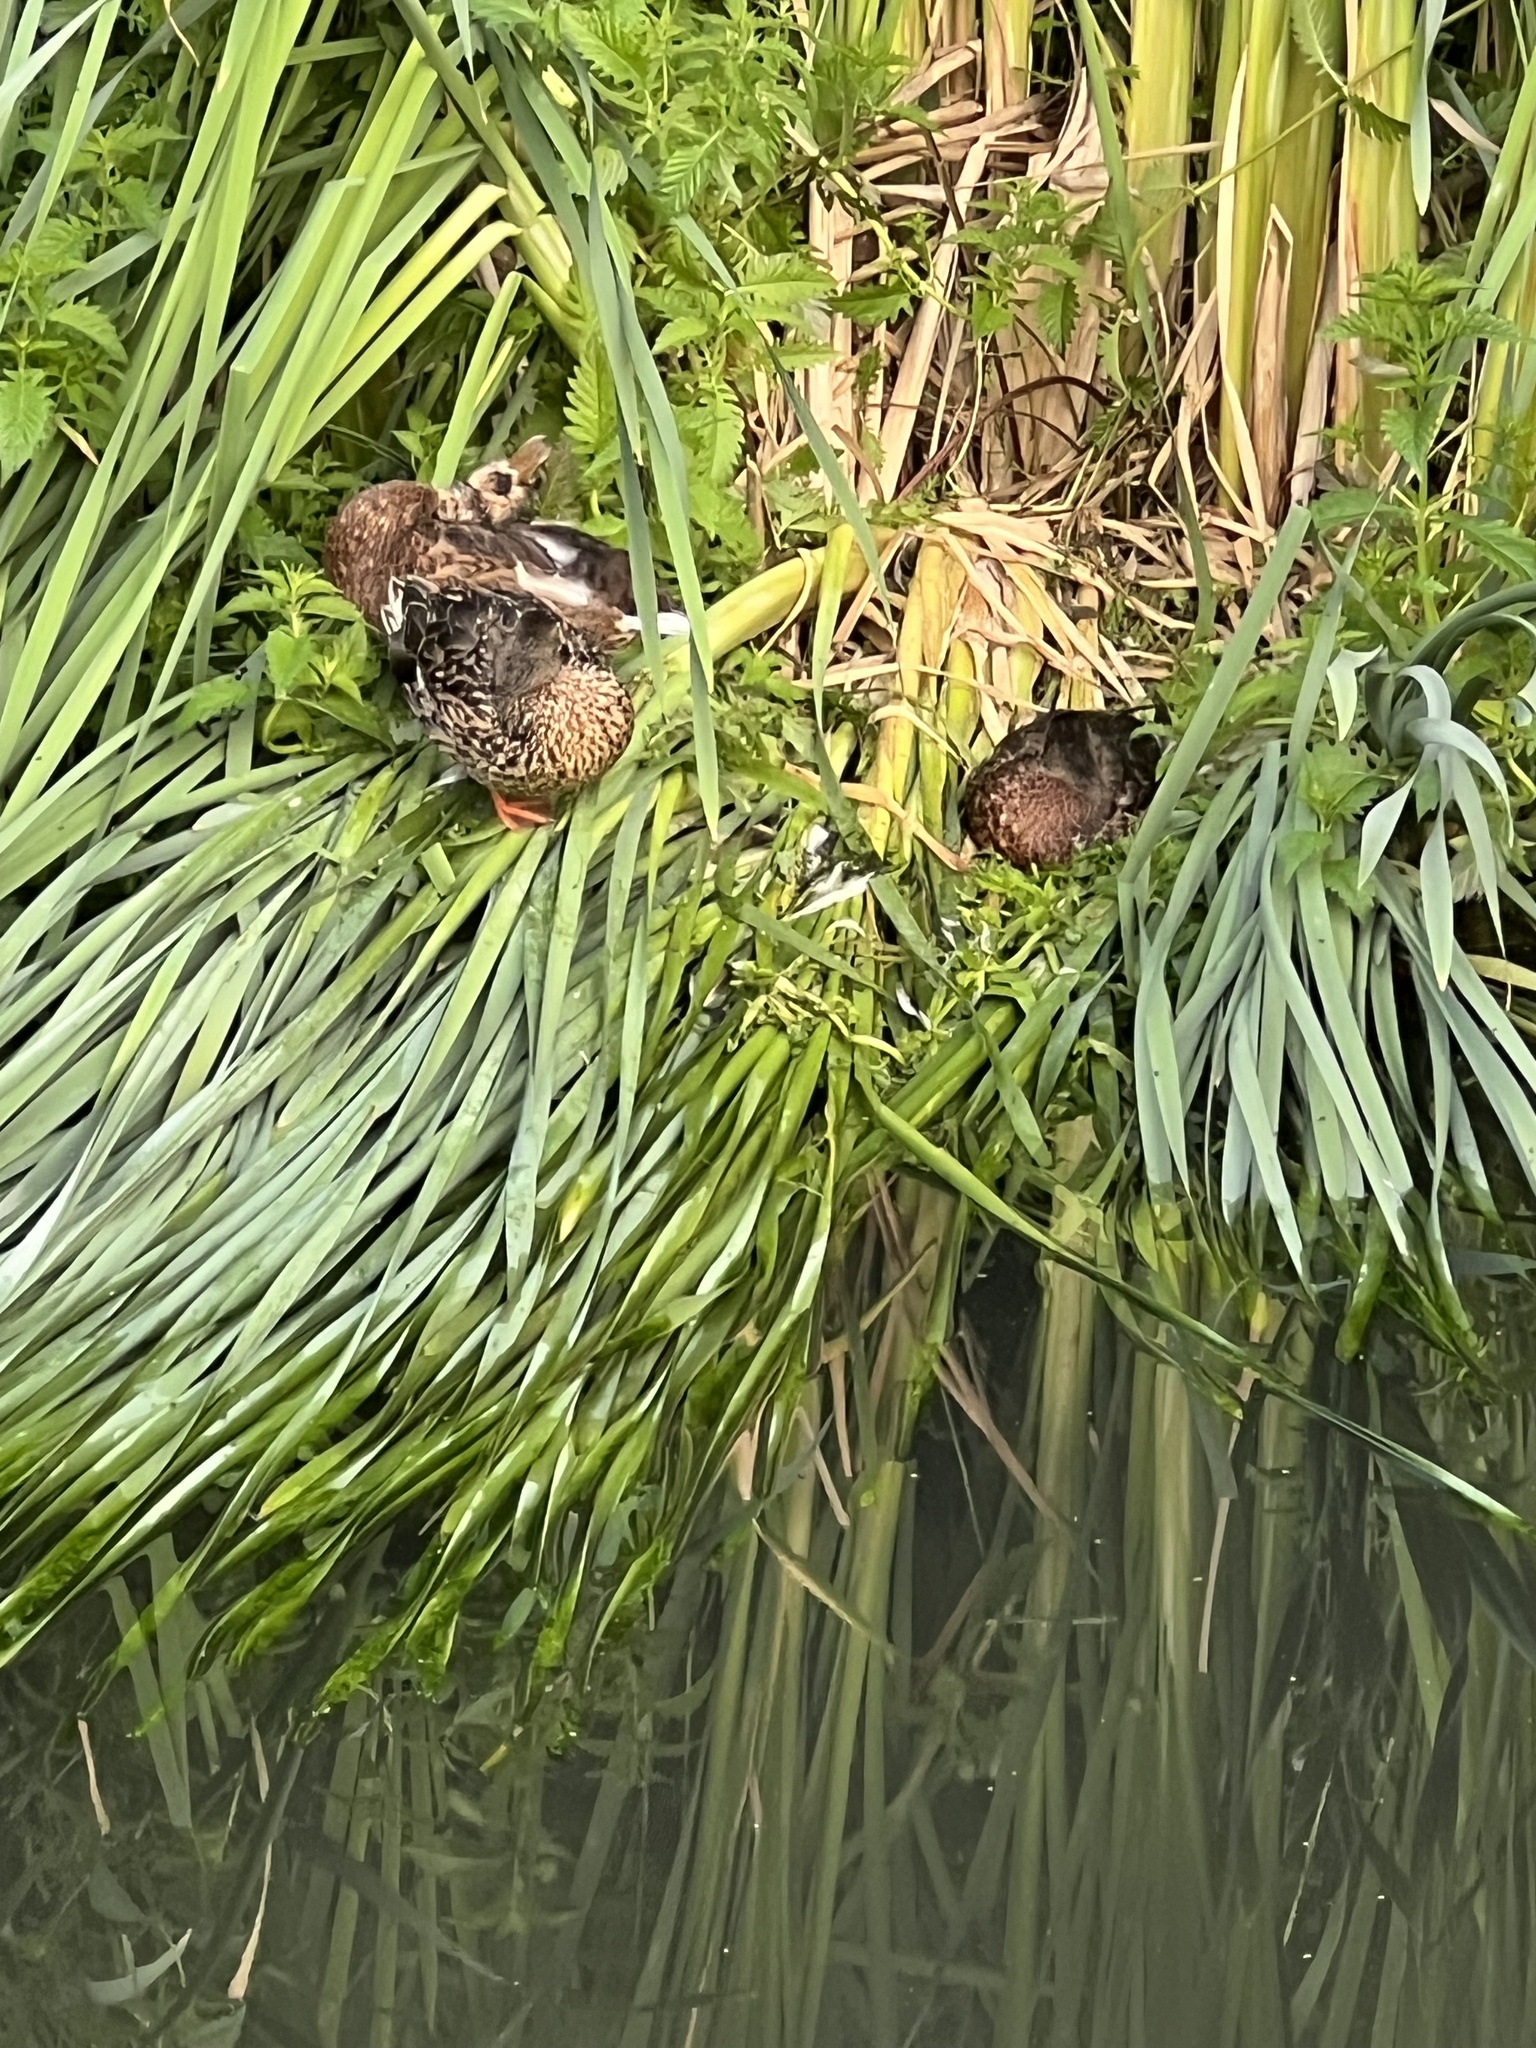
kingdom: Animalia
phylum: Chordata
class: Aves
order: Anseriformes
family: Anatidae
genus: Anas
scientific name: Anas platyrhynchos
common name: Mallard
